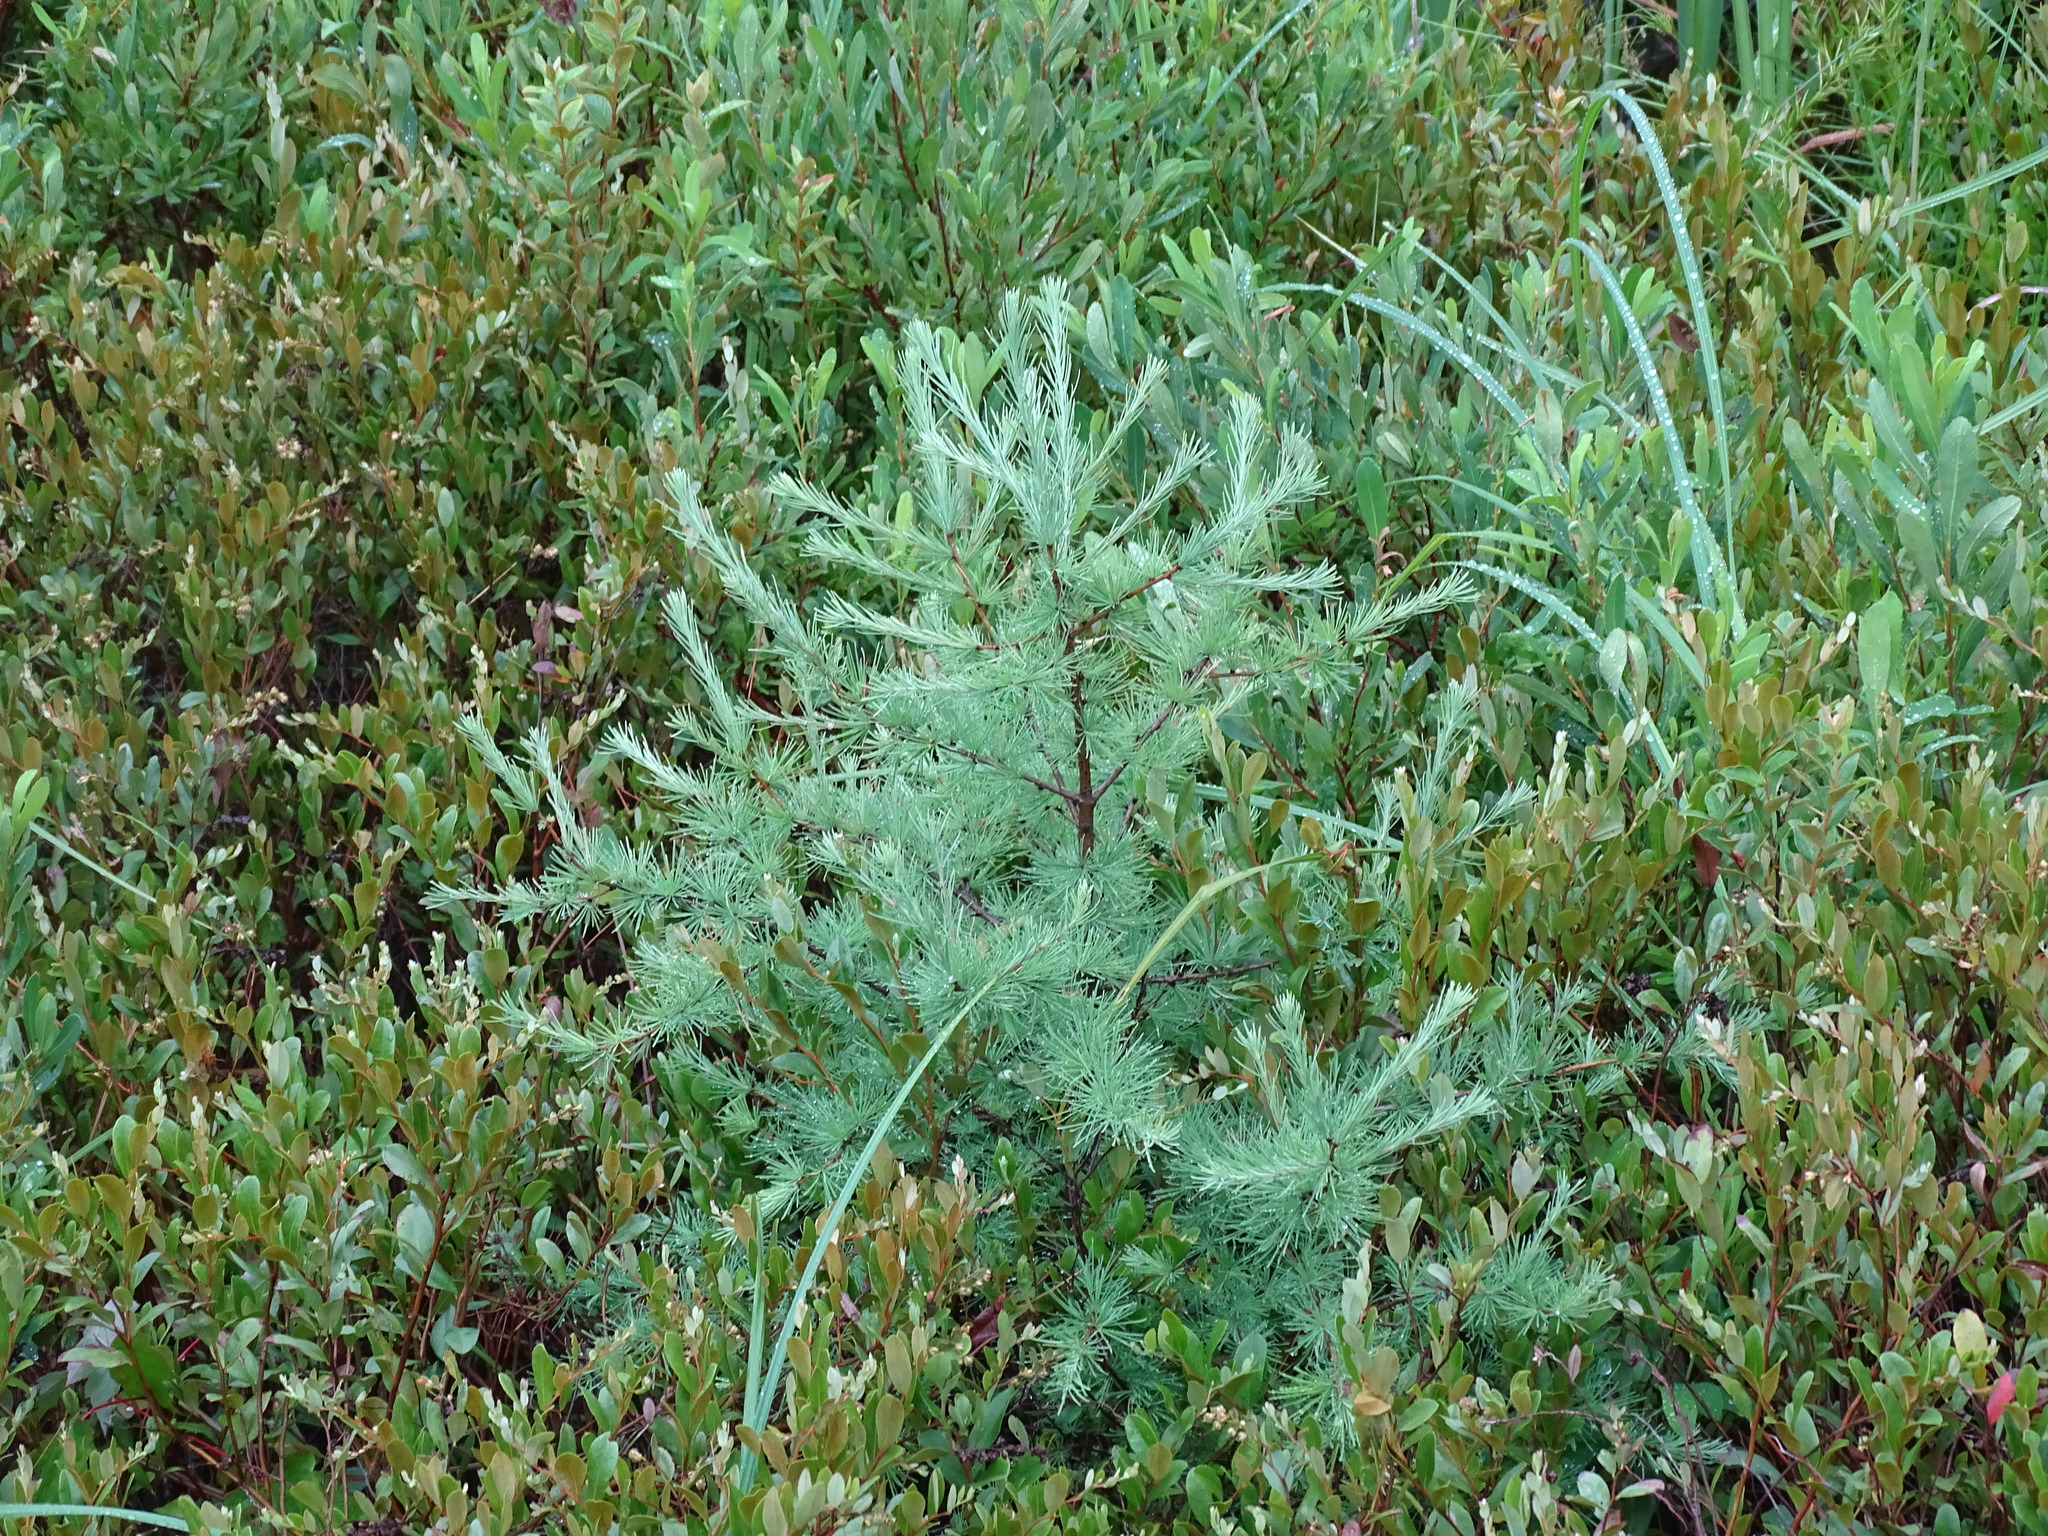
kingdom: Plantae
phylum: Tracheophyta
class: Pinopsida
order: Pinales
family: Pinaceae
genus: Larix
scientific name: Larix laricina
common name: American larch
